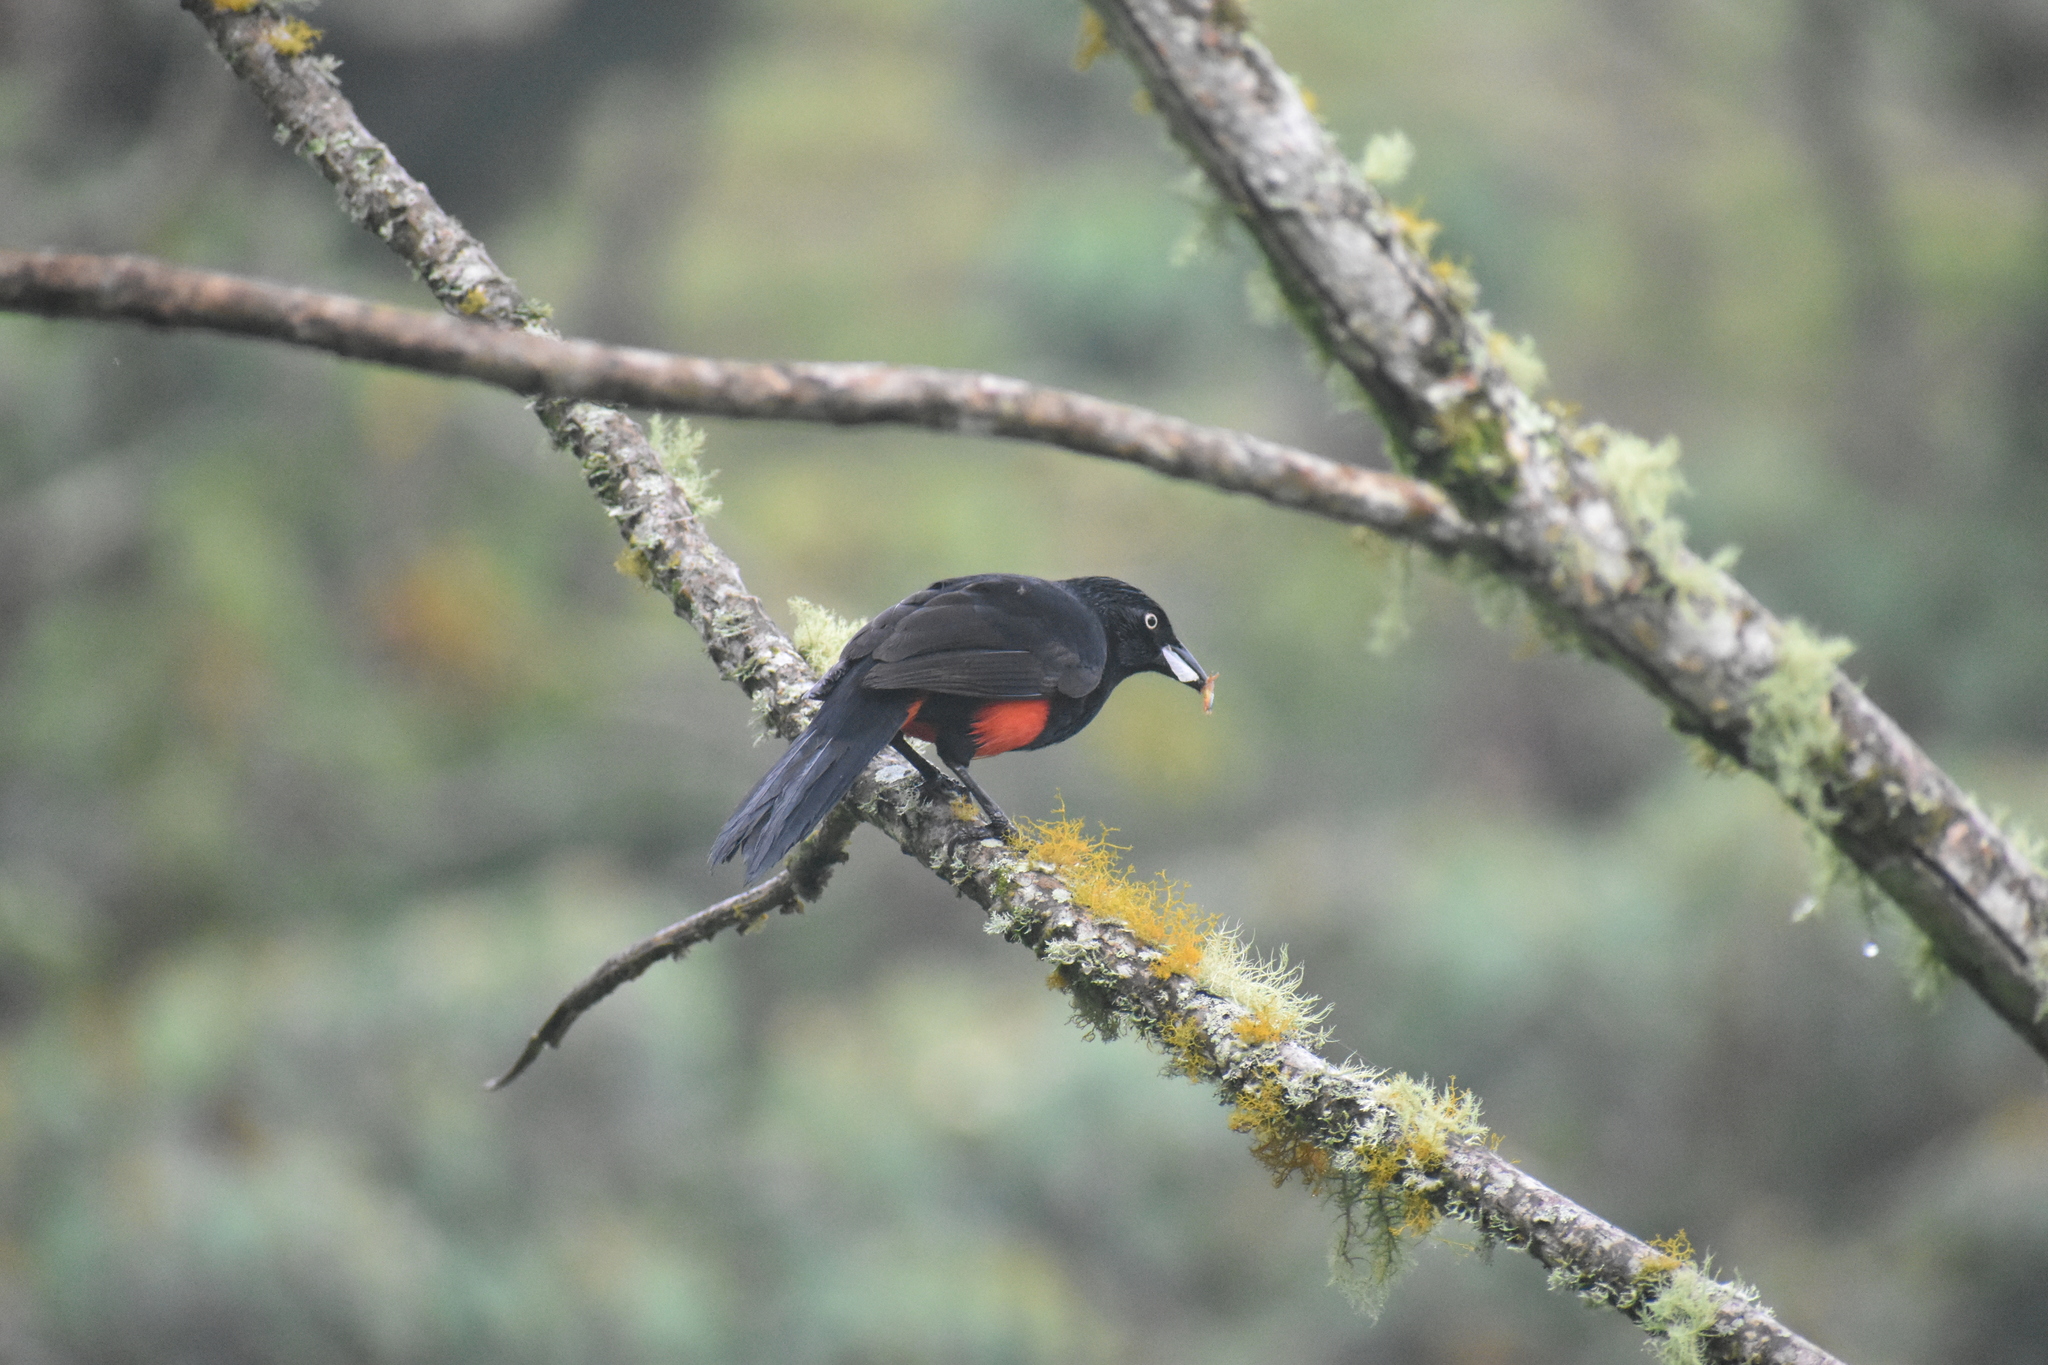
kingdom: Animalia
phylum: Chordata
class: Aves
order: Passeriformes
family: Icteridae
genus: Hypopyrrhus
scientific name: Hypopyrrhus pyrohypogaster
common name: Red-bellied grackle
